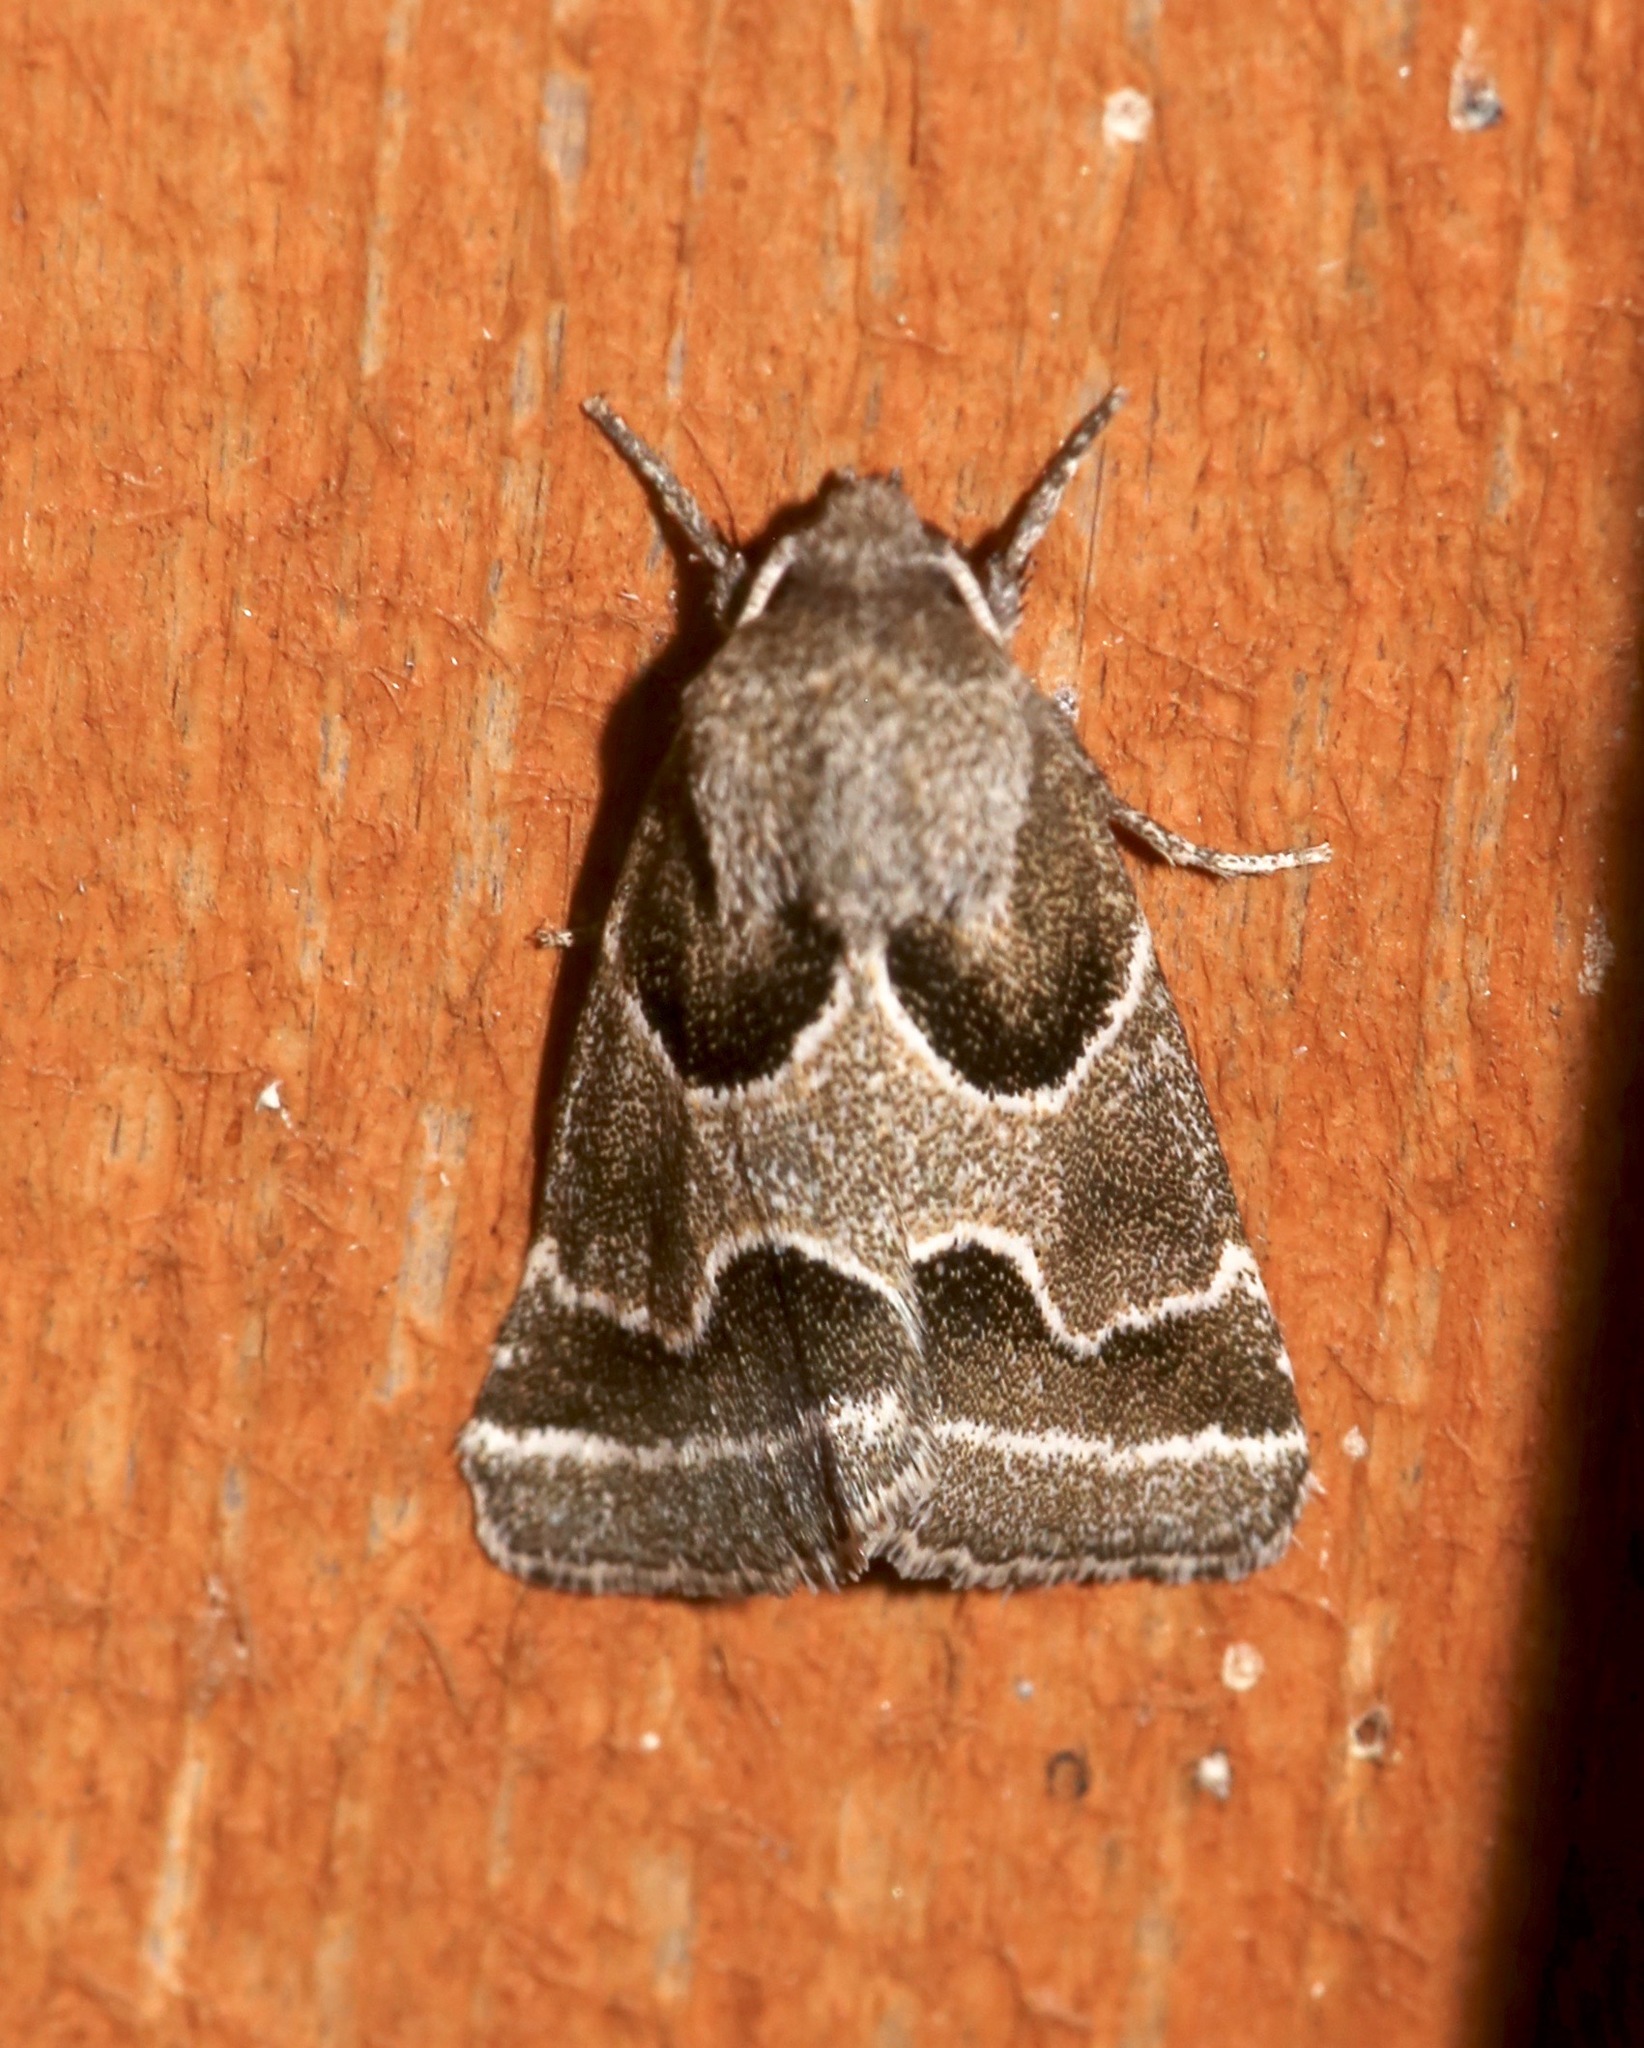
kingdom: Animalia
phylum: Arthropoda
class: Insecta
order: Lepidoptera
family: Noctuidae
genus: Schinia
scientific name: Schinia rivulosa
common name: Scarce meal-moth
